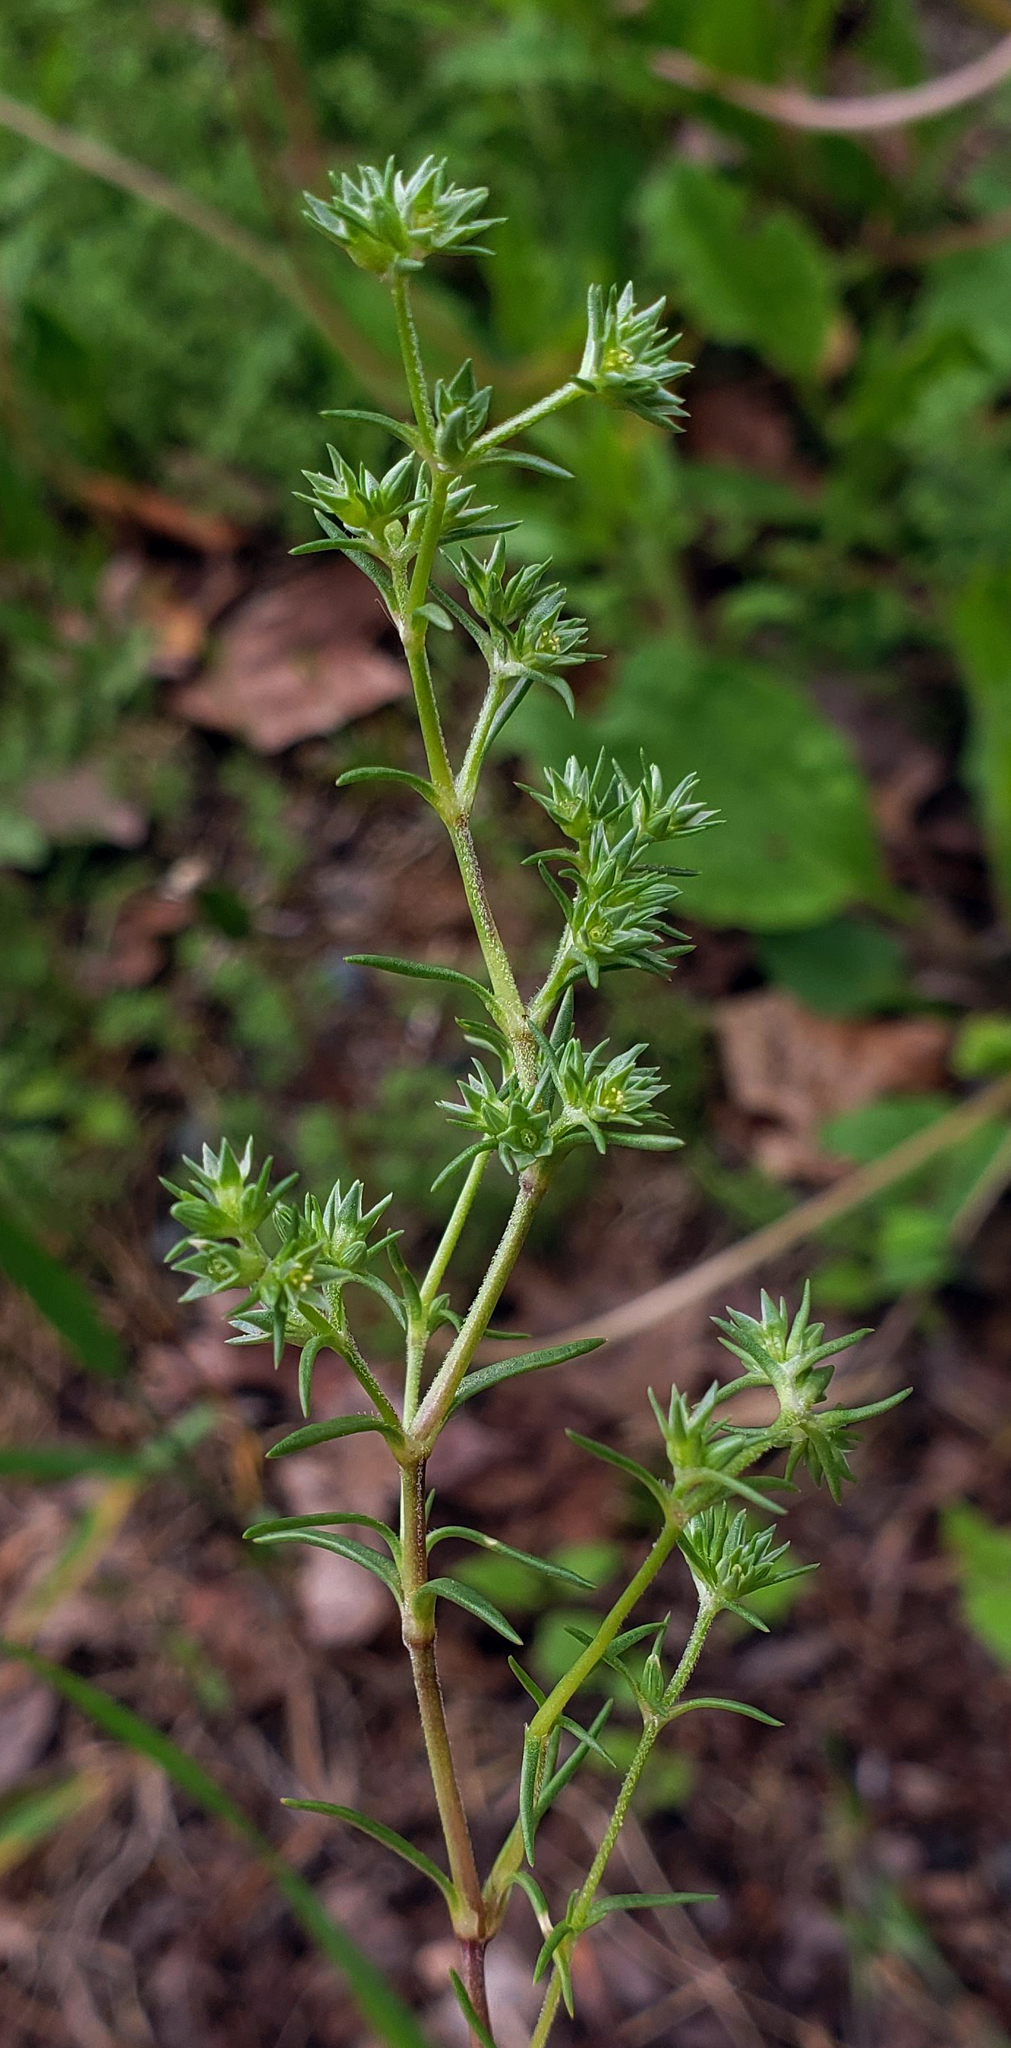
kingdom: Plantae
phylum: Tracheophyta
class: Magnoliopsida
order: Caryophyllales
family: Caryophyllaceae
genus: Scleranthus
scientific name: Scleranthus annuus
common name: Annual knawel
